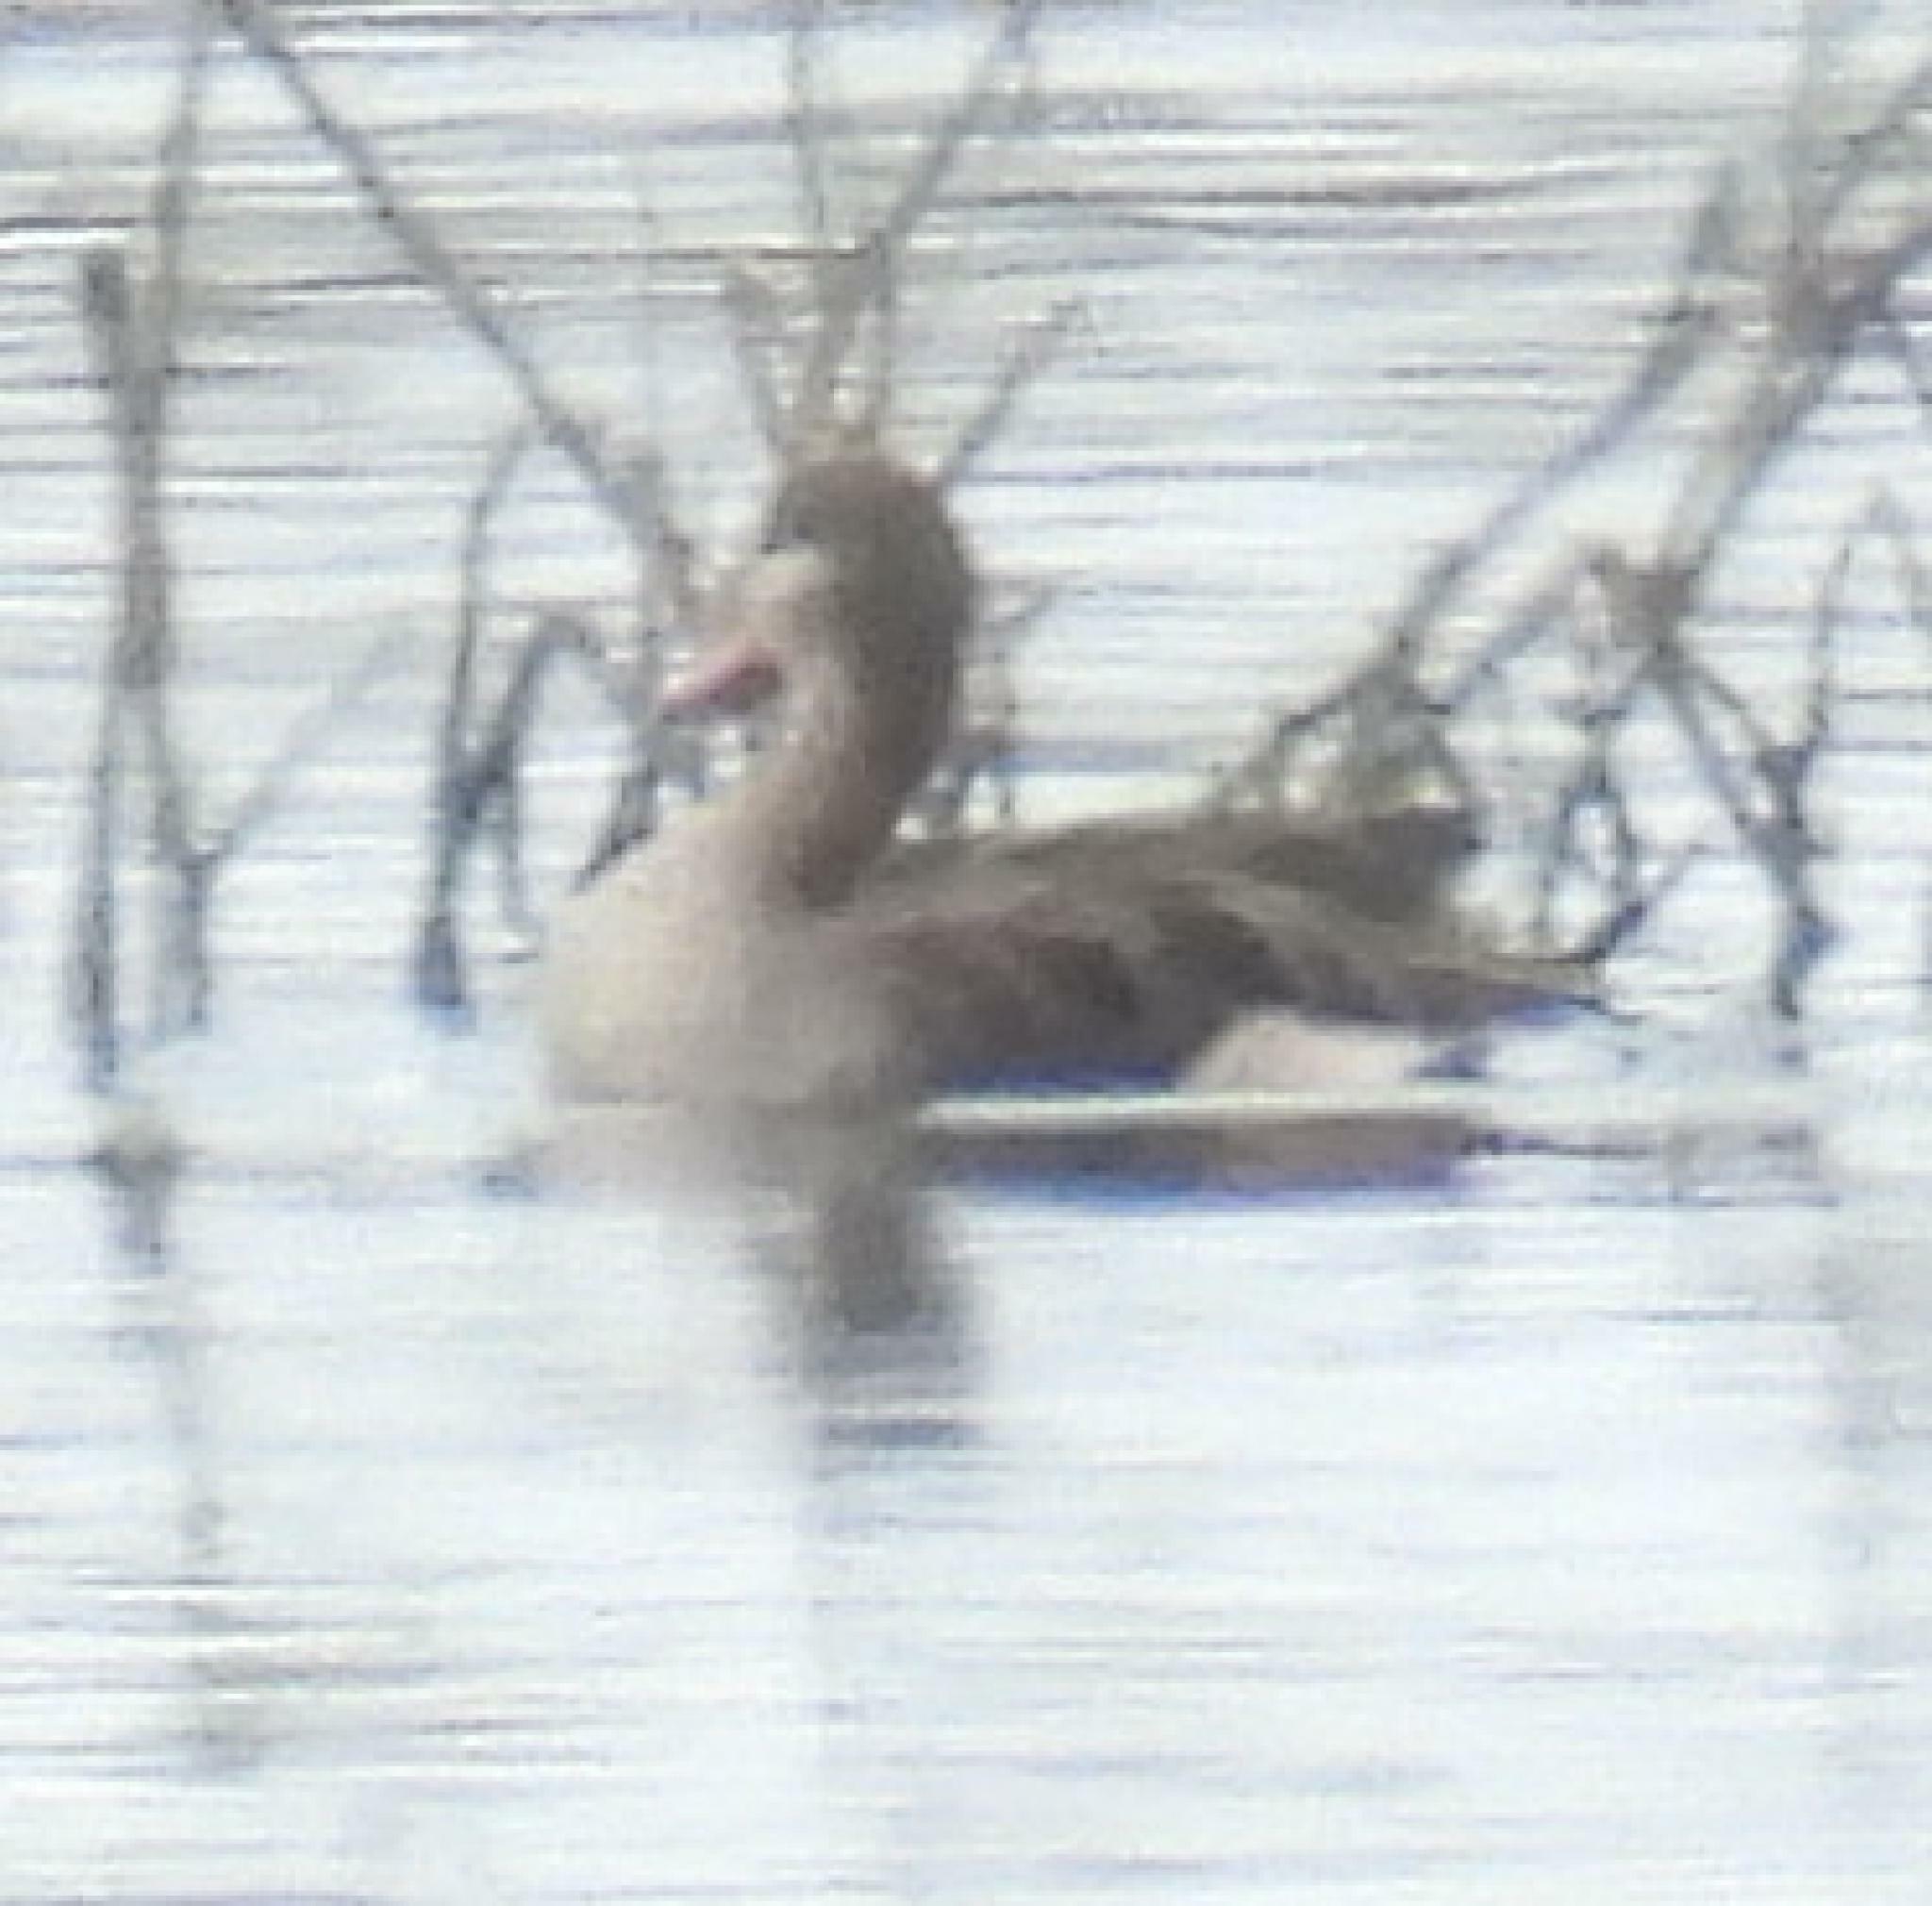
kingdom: Animalia
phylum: Chordata
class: Aves
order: Anseriformes
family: Anatidae
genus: Anas
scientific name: Anas erythrorhyncha
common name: Red-billed teal
